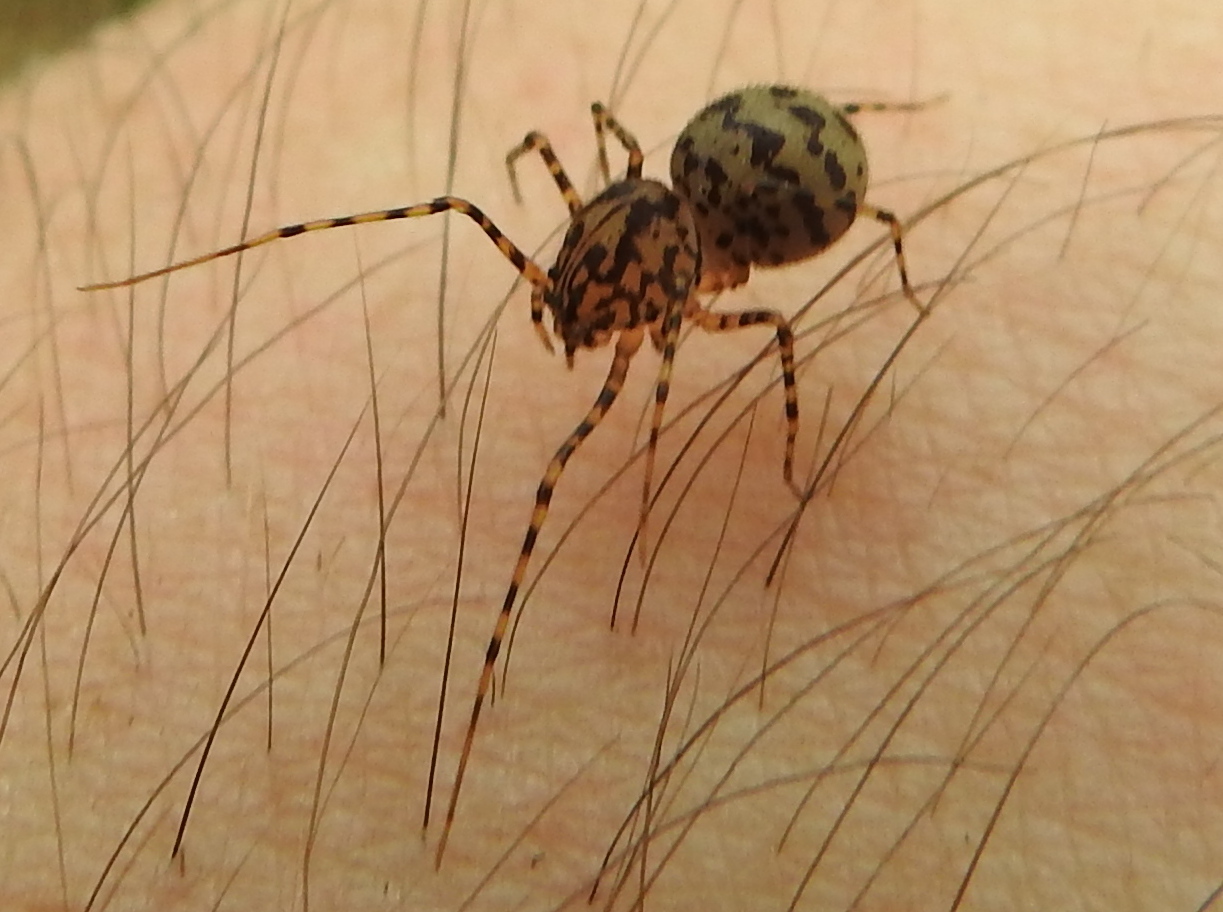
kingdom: Animalia
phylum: Arthropoda
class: Arachnida
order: Araneae
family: Scytodidae
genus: Scytodes
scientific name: Scytodes thoracica
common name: Spitting spider
